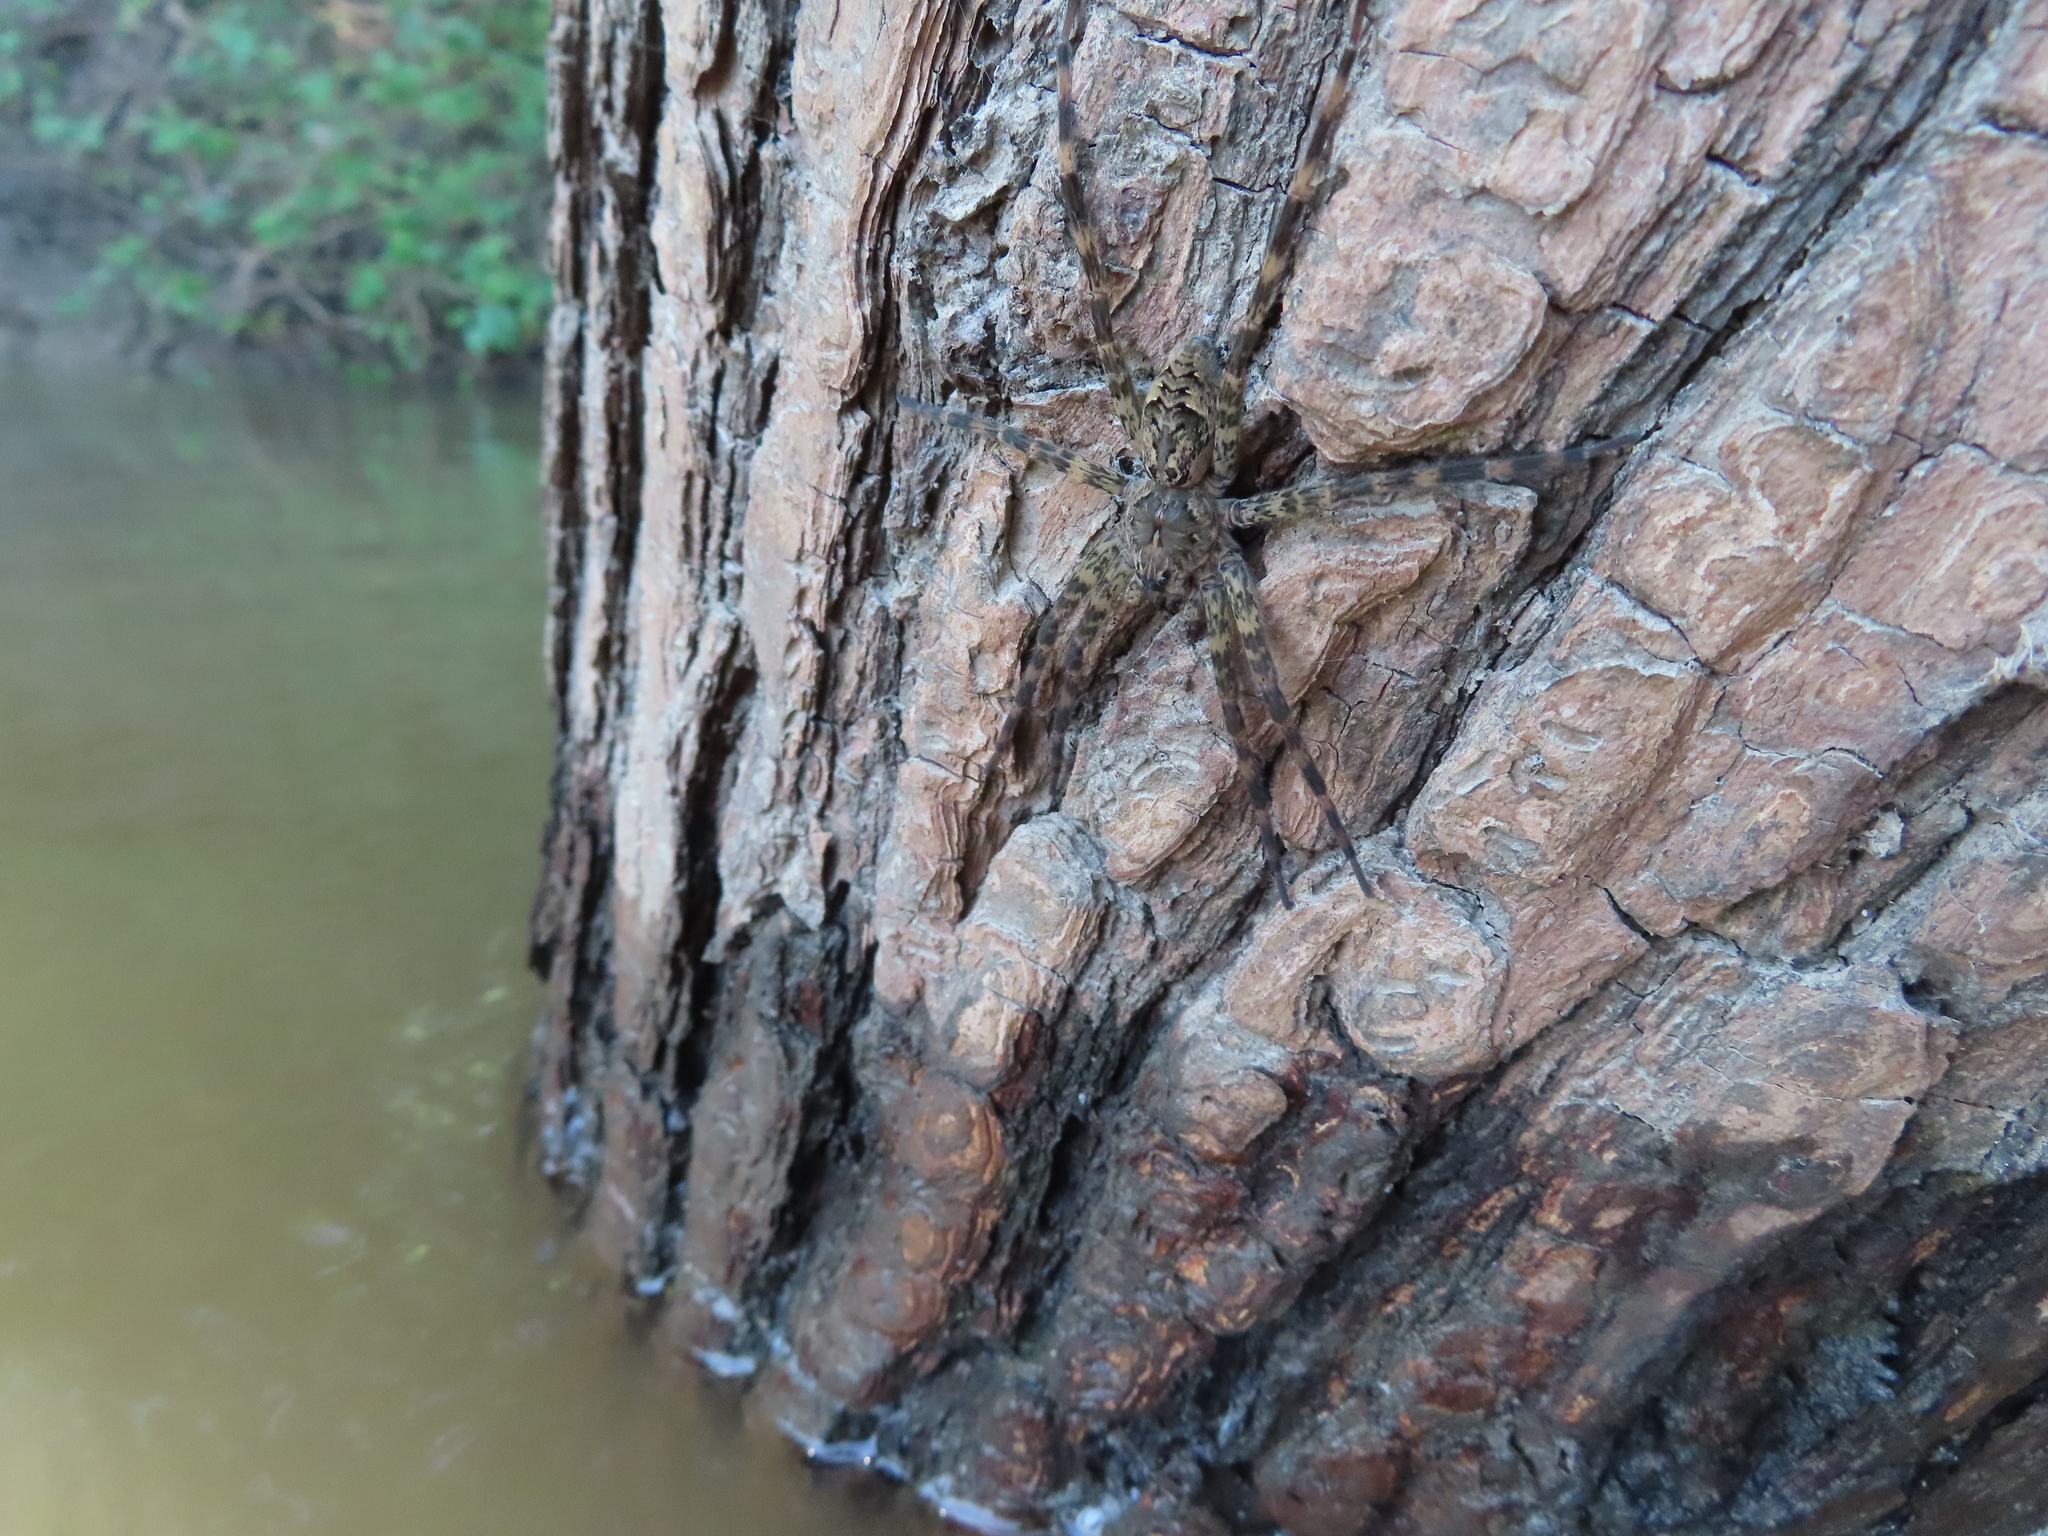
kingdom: Animalia
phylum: Arthropoda
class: Arachnida
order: Araneae
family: Pisauridae
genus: Dolomedes
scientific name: Dolomedes tenebrosus
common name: Dark fishing spider
